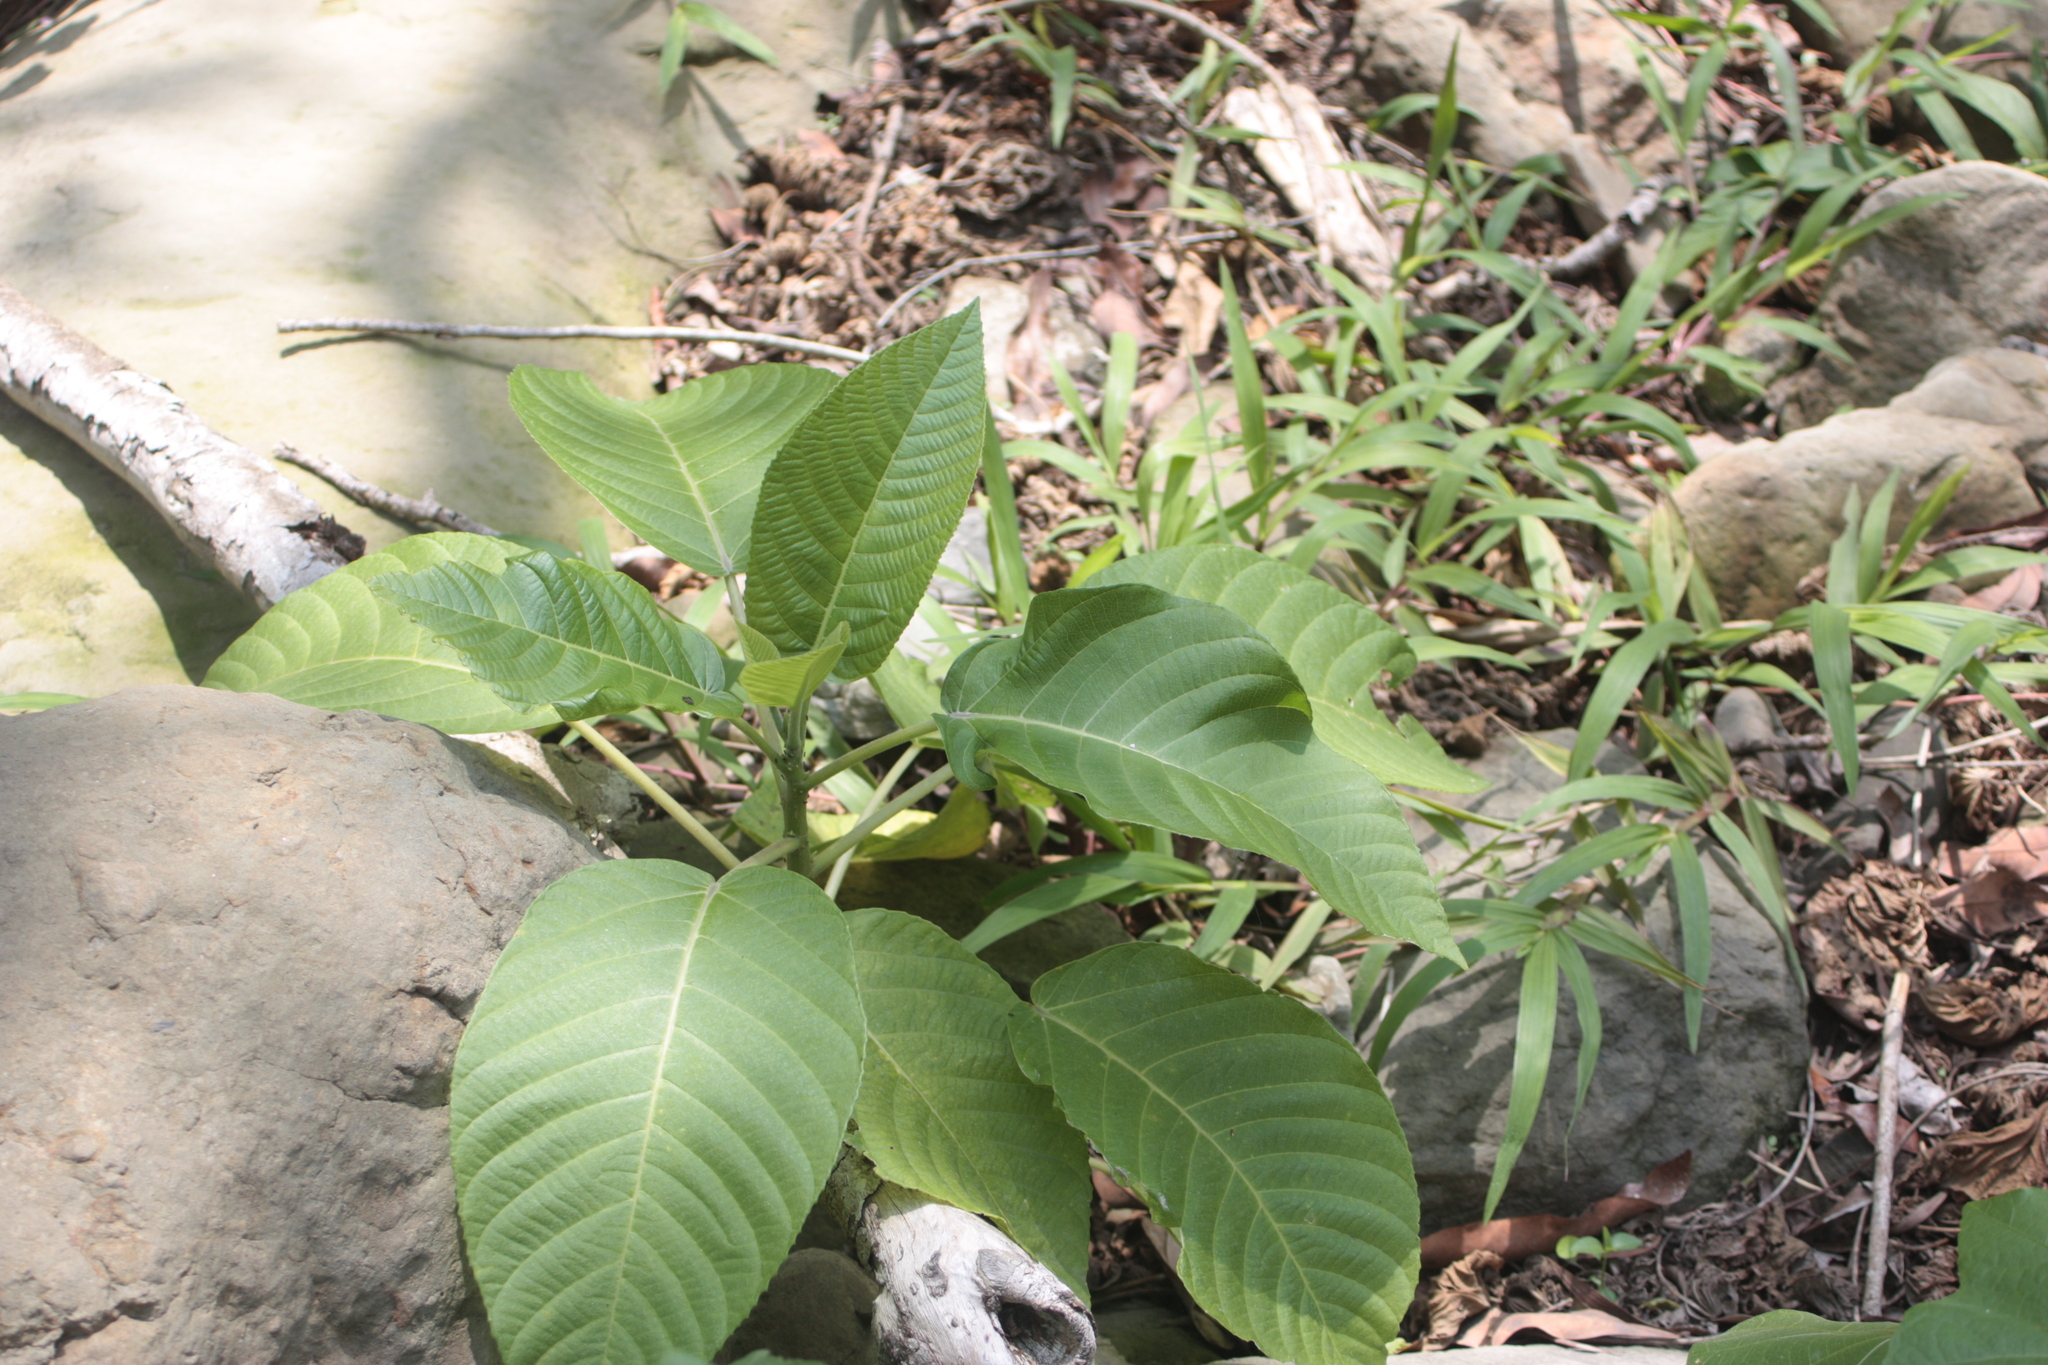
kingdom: Plantae
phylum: Tracheophyta
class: Magnoliopsida
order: Rosales
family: Urticaceae
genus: Dendrocnide
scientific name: Dendrocnide meyeniana
